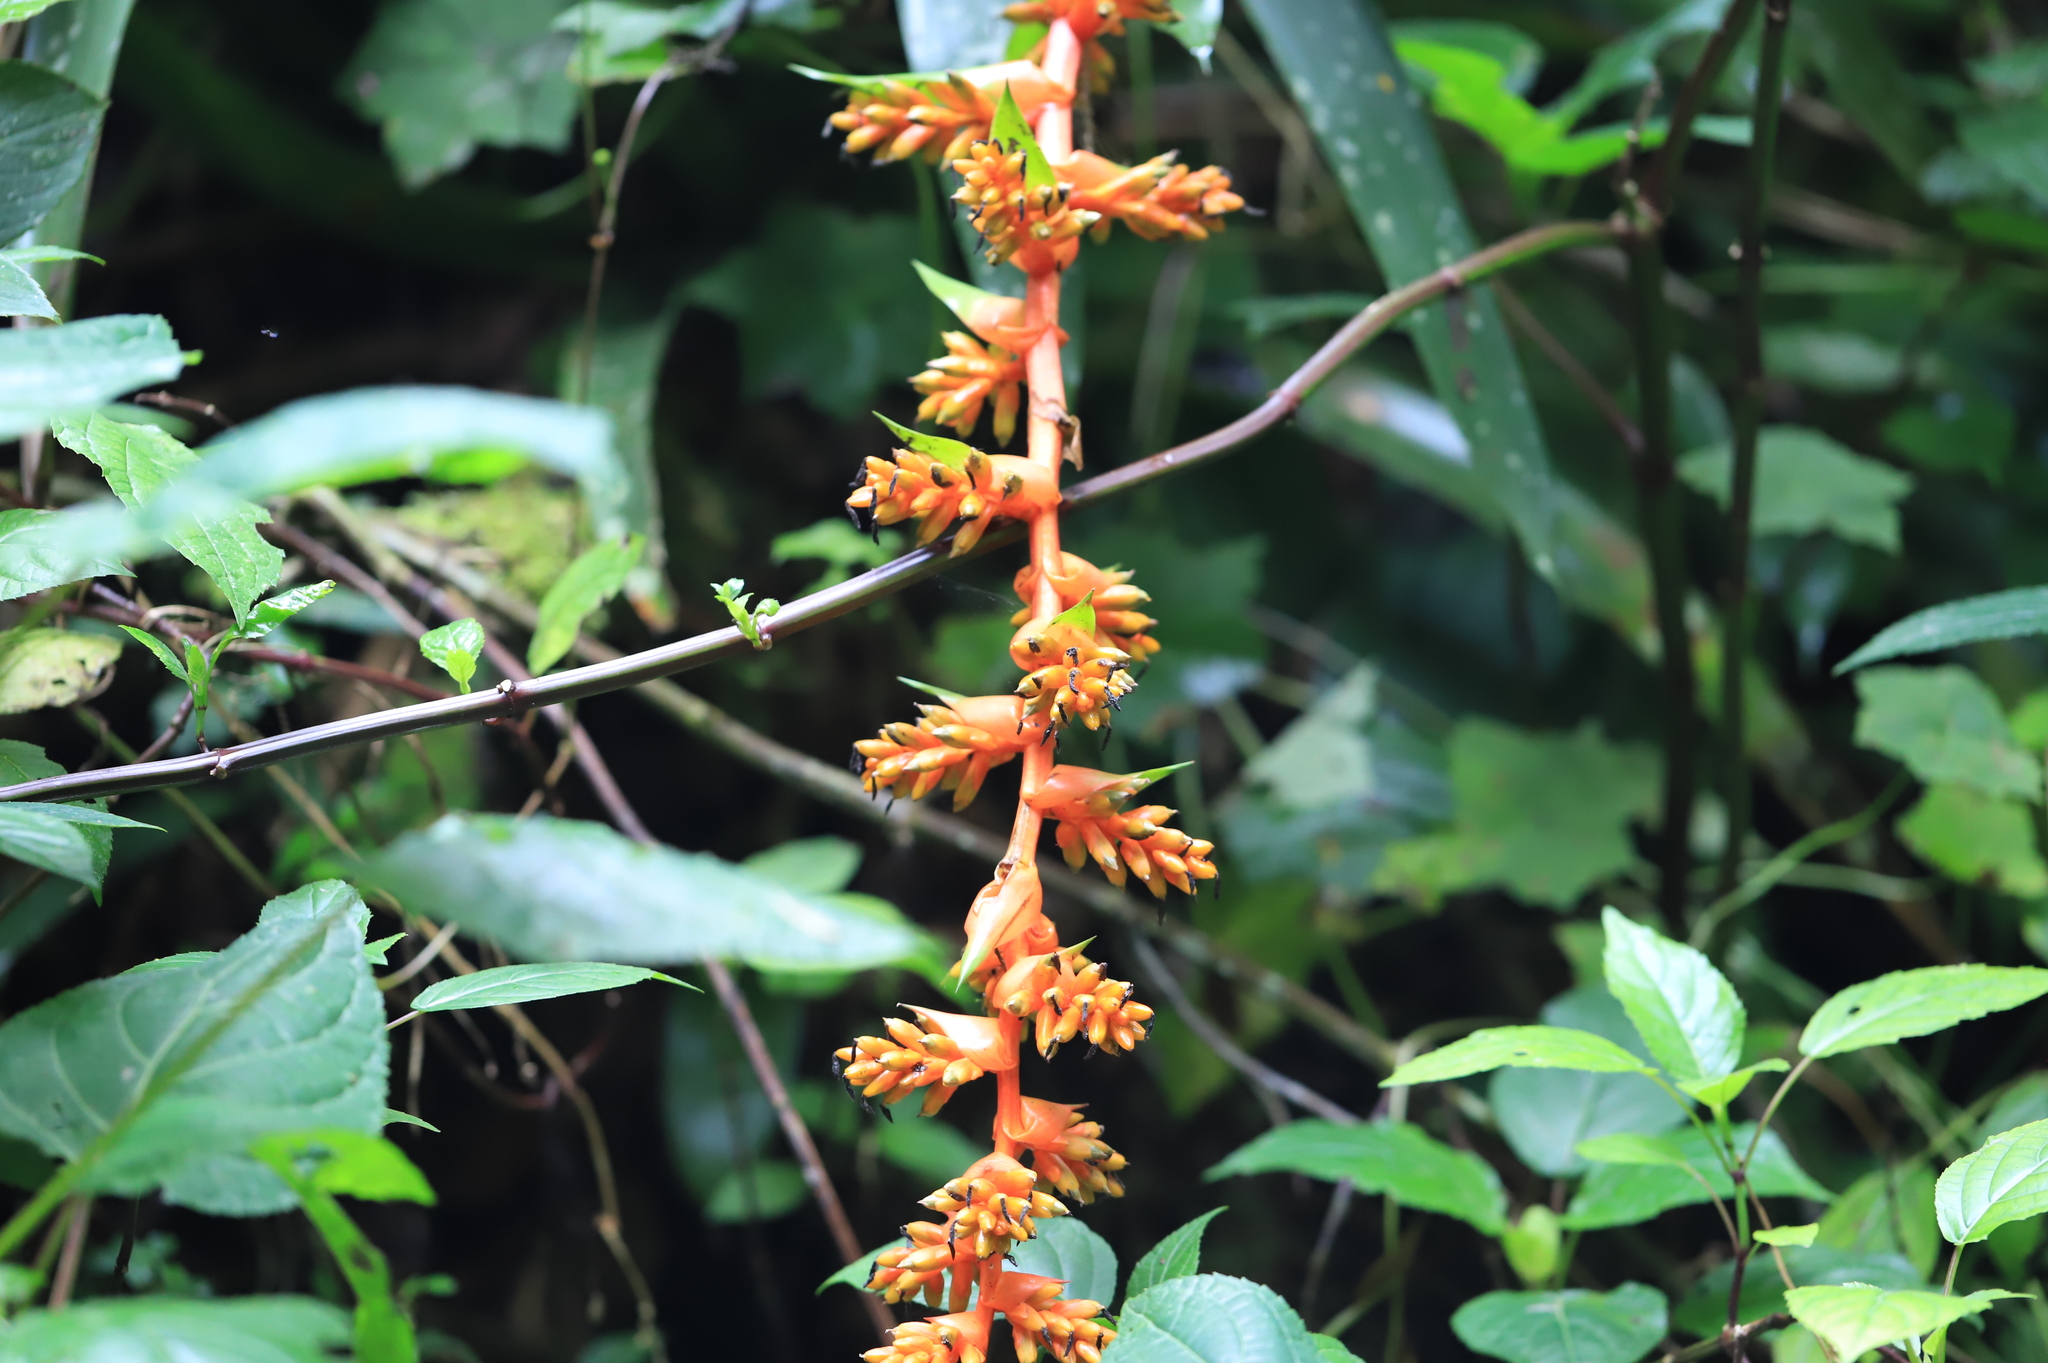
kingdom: Plantae
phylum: Tracheophyta
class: Liliopsida
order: Poales
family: Bromeliaceae
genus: Guzmania
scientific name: Guzmania multiflora
